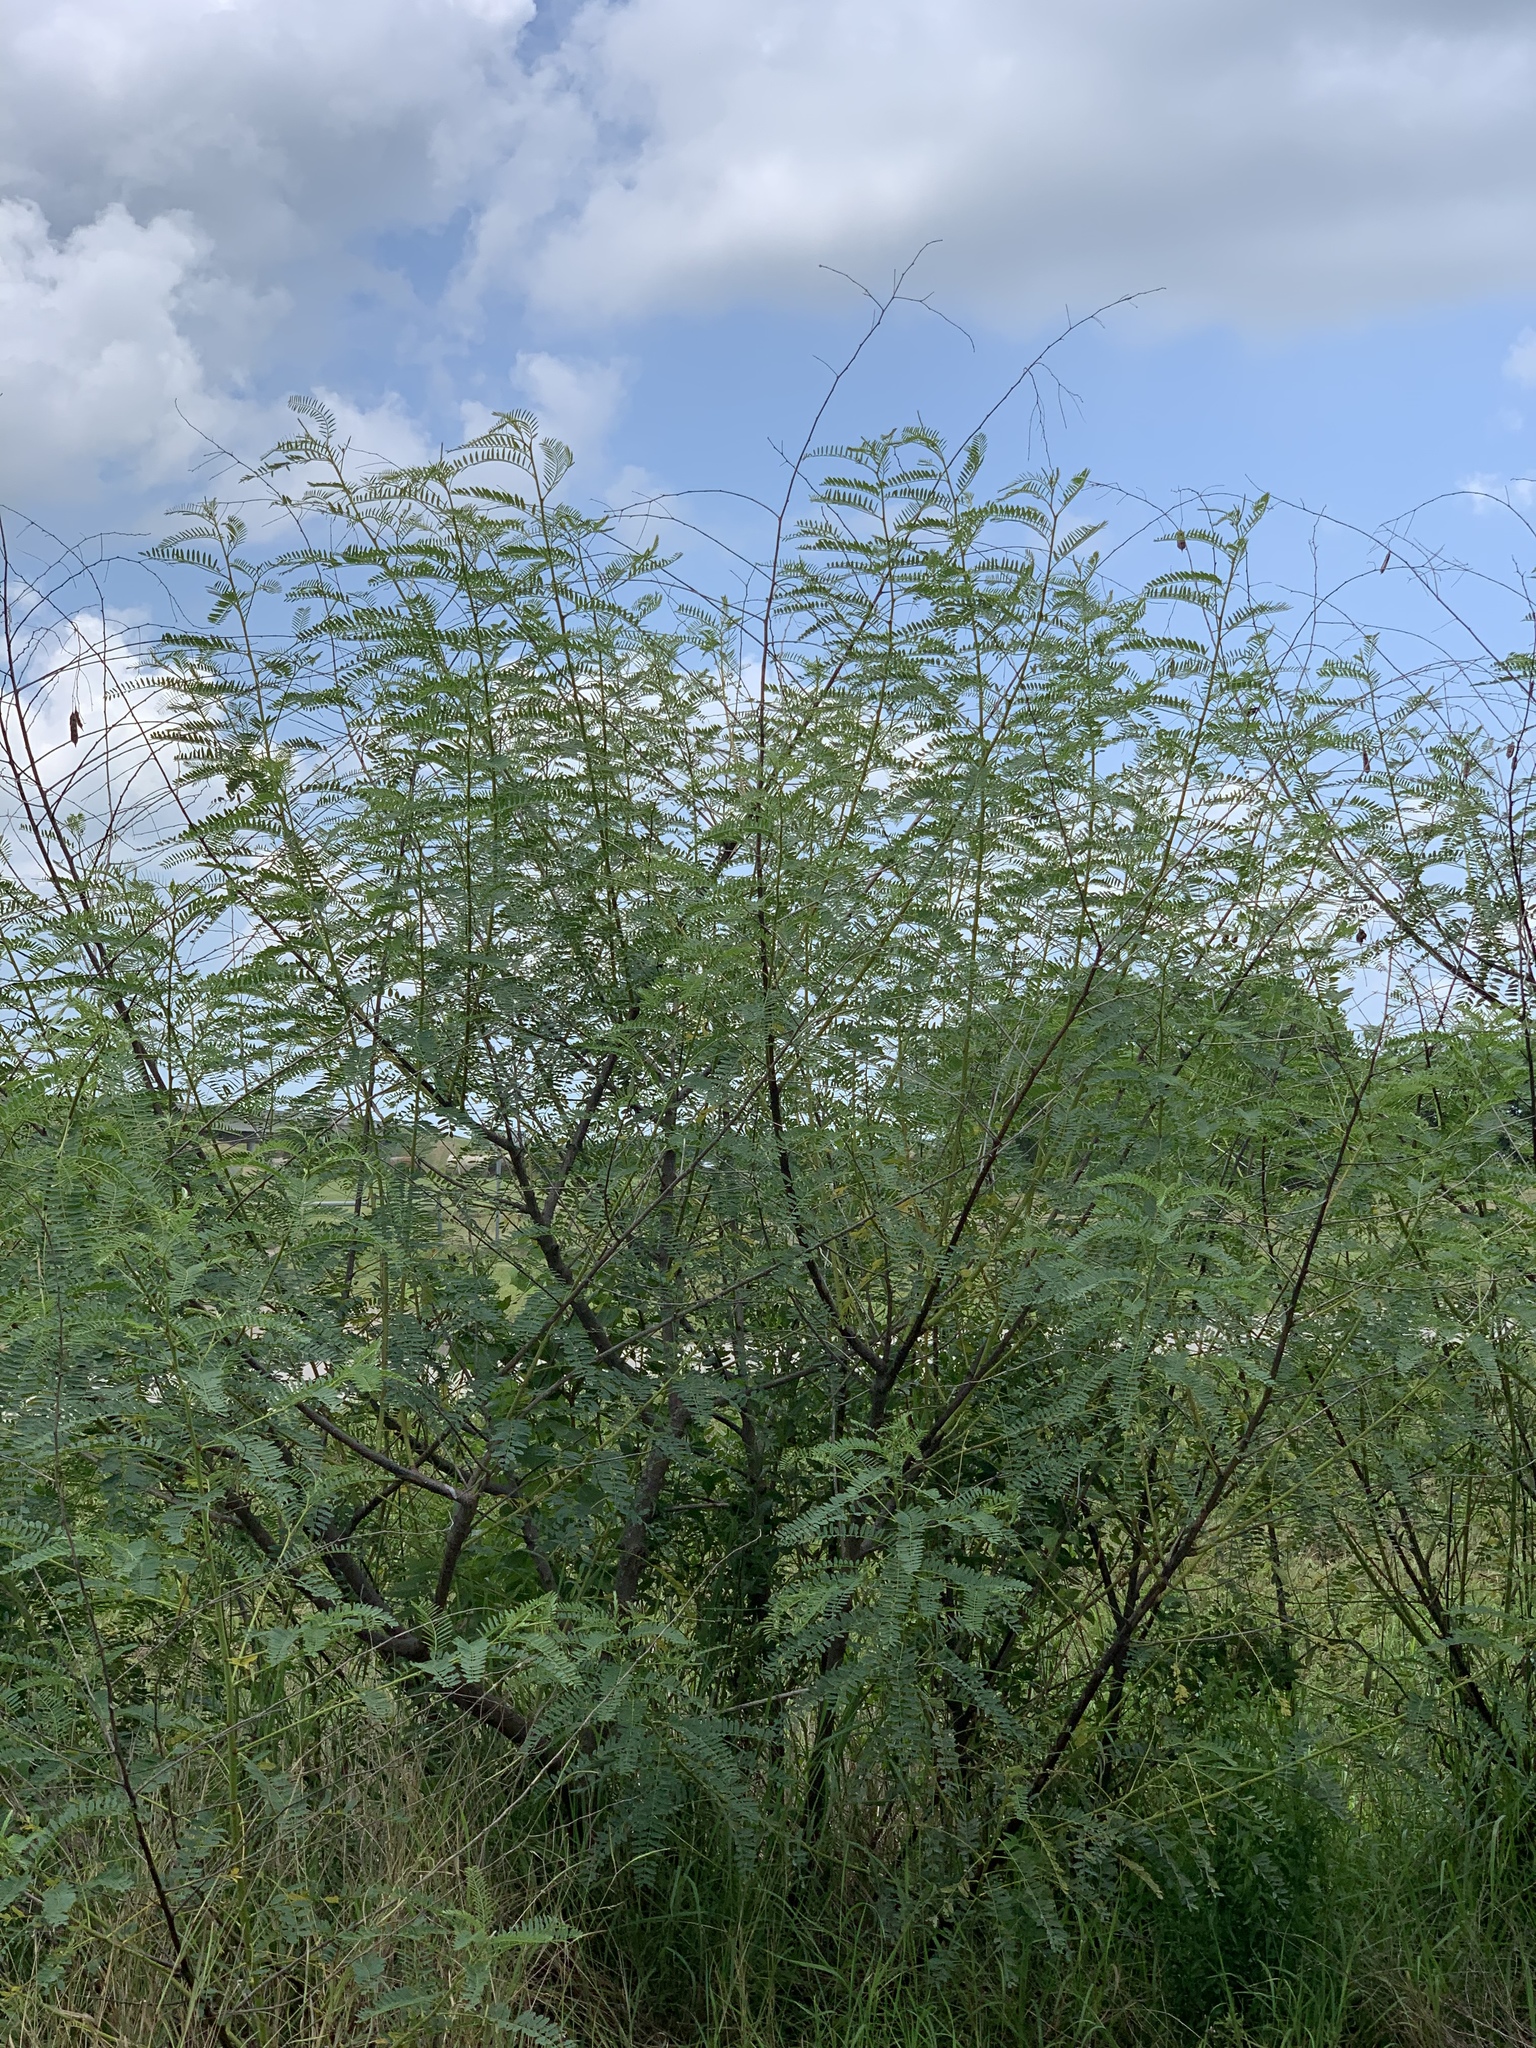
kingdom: Plantae
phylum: Tracheophyta
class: Magnoliopsida
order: Fabales
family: Fabaceae
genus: Sesbania
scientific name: Sesbania drummondii
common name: Poison-bean
